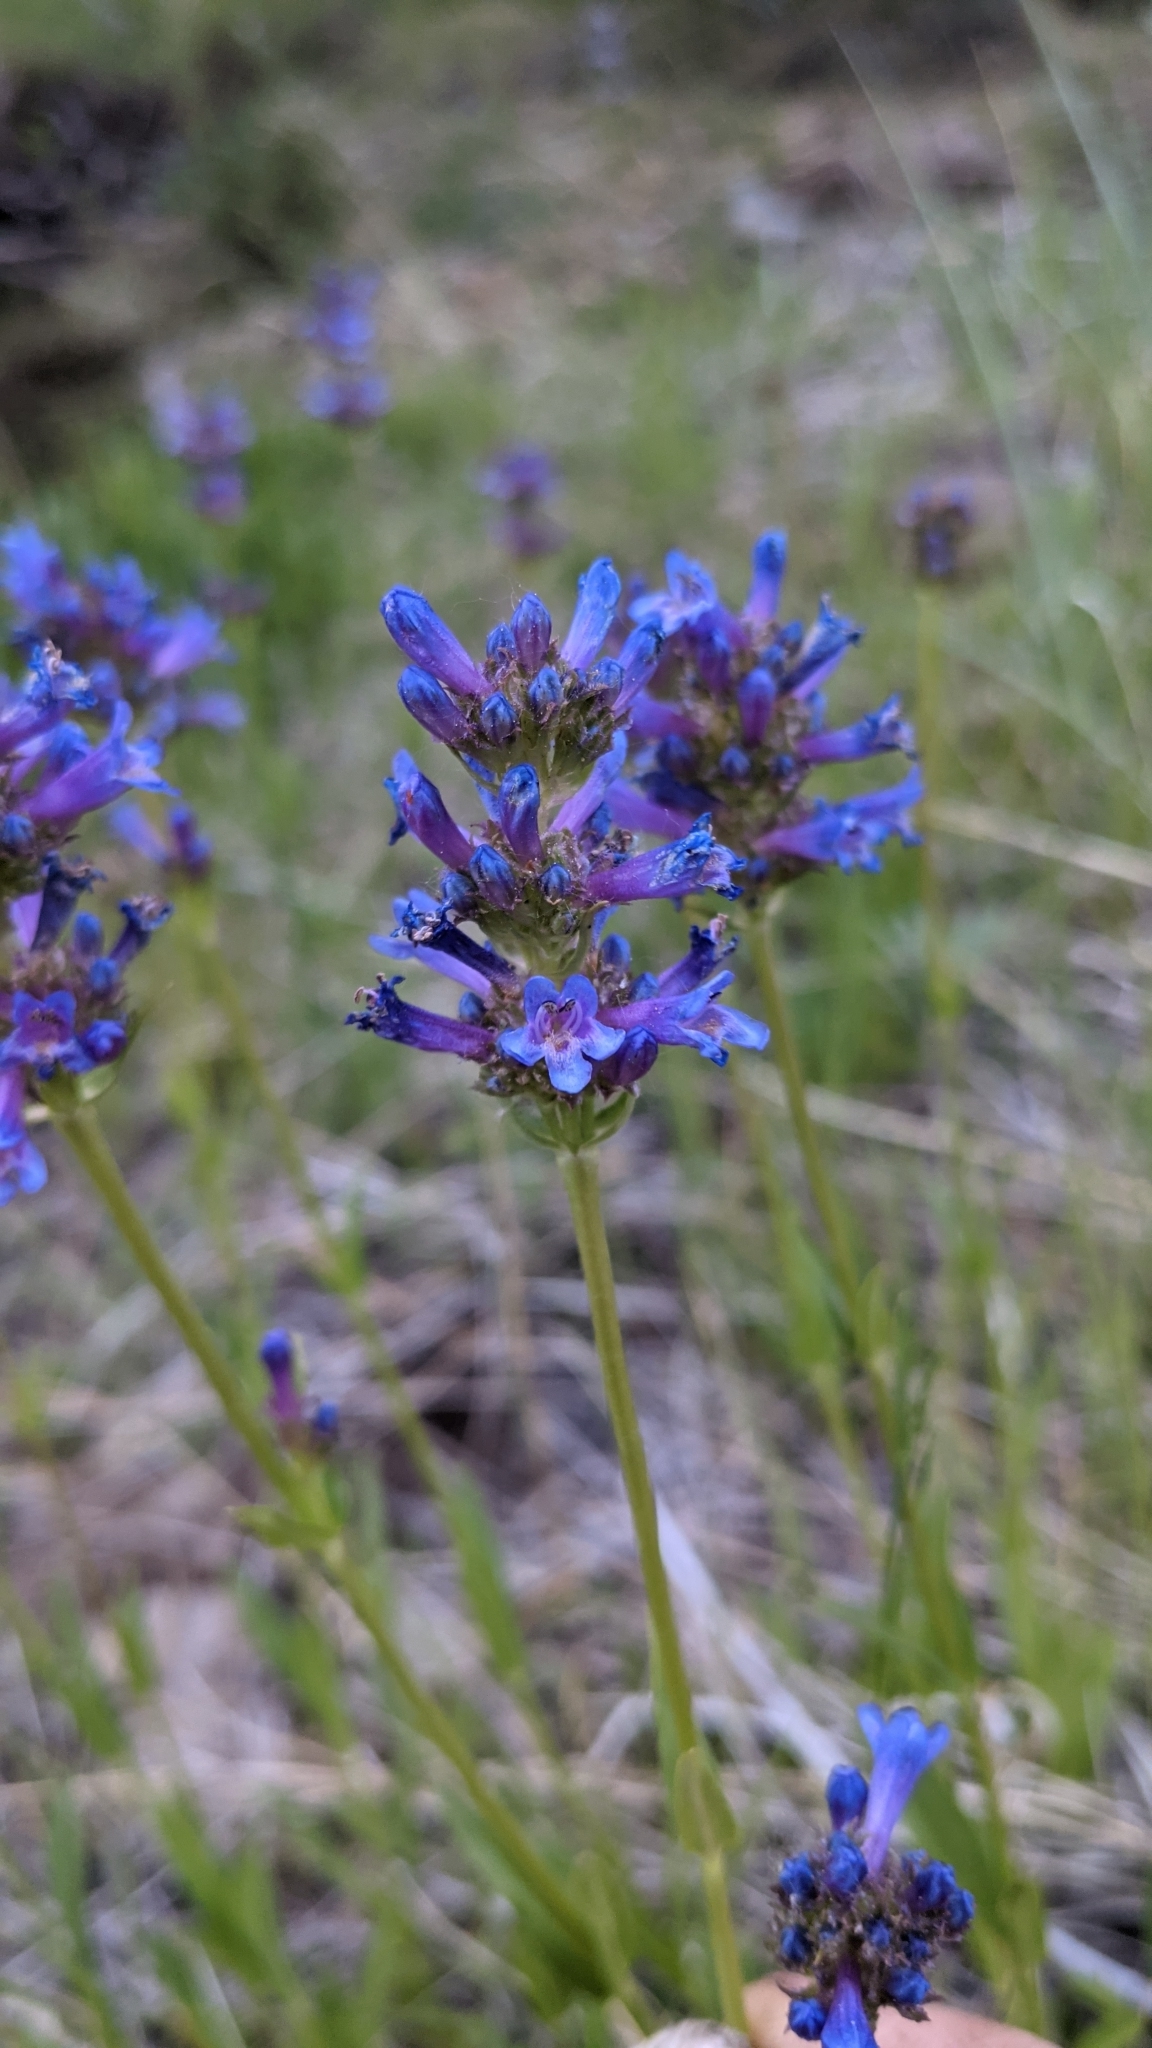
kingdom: Plantae
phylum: Tracheophyta
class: Magnoliopsida
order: Lamiales
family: Plantaginaceae
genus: Penstemon
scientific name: Penstemon rydbergii
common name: Rydberg's beardtongue
